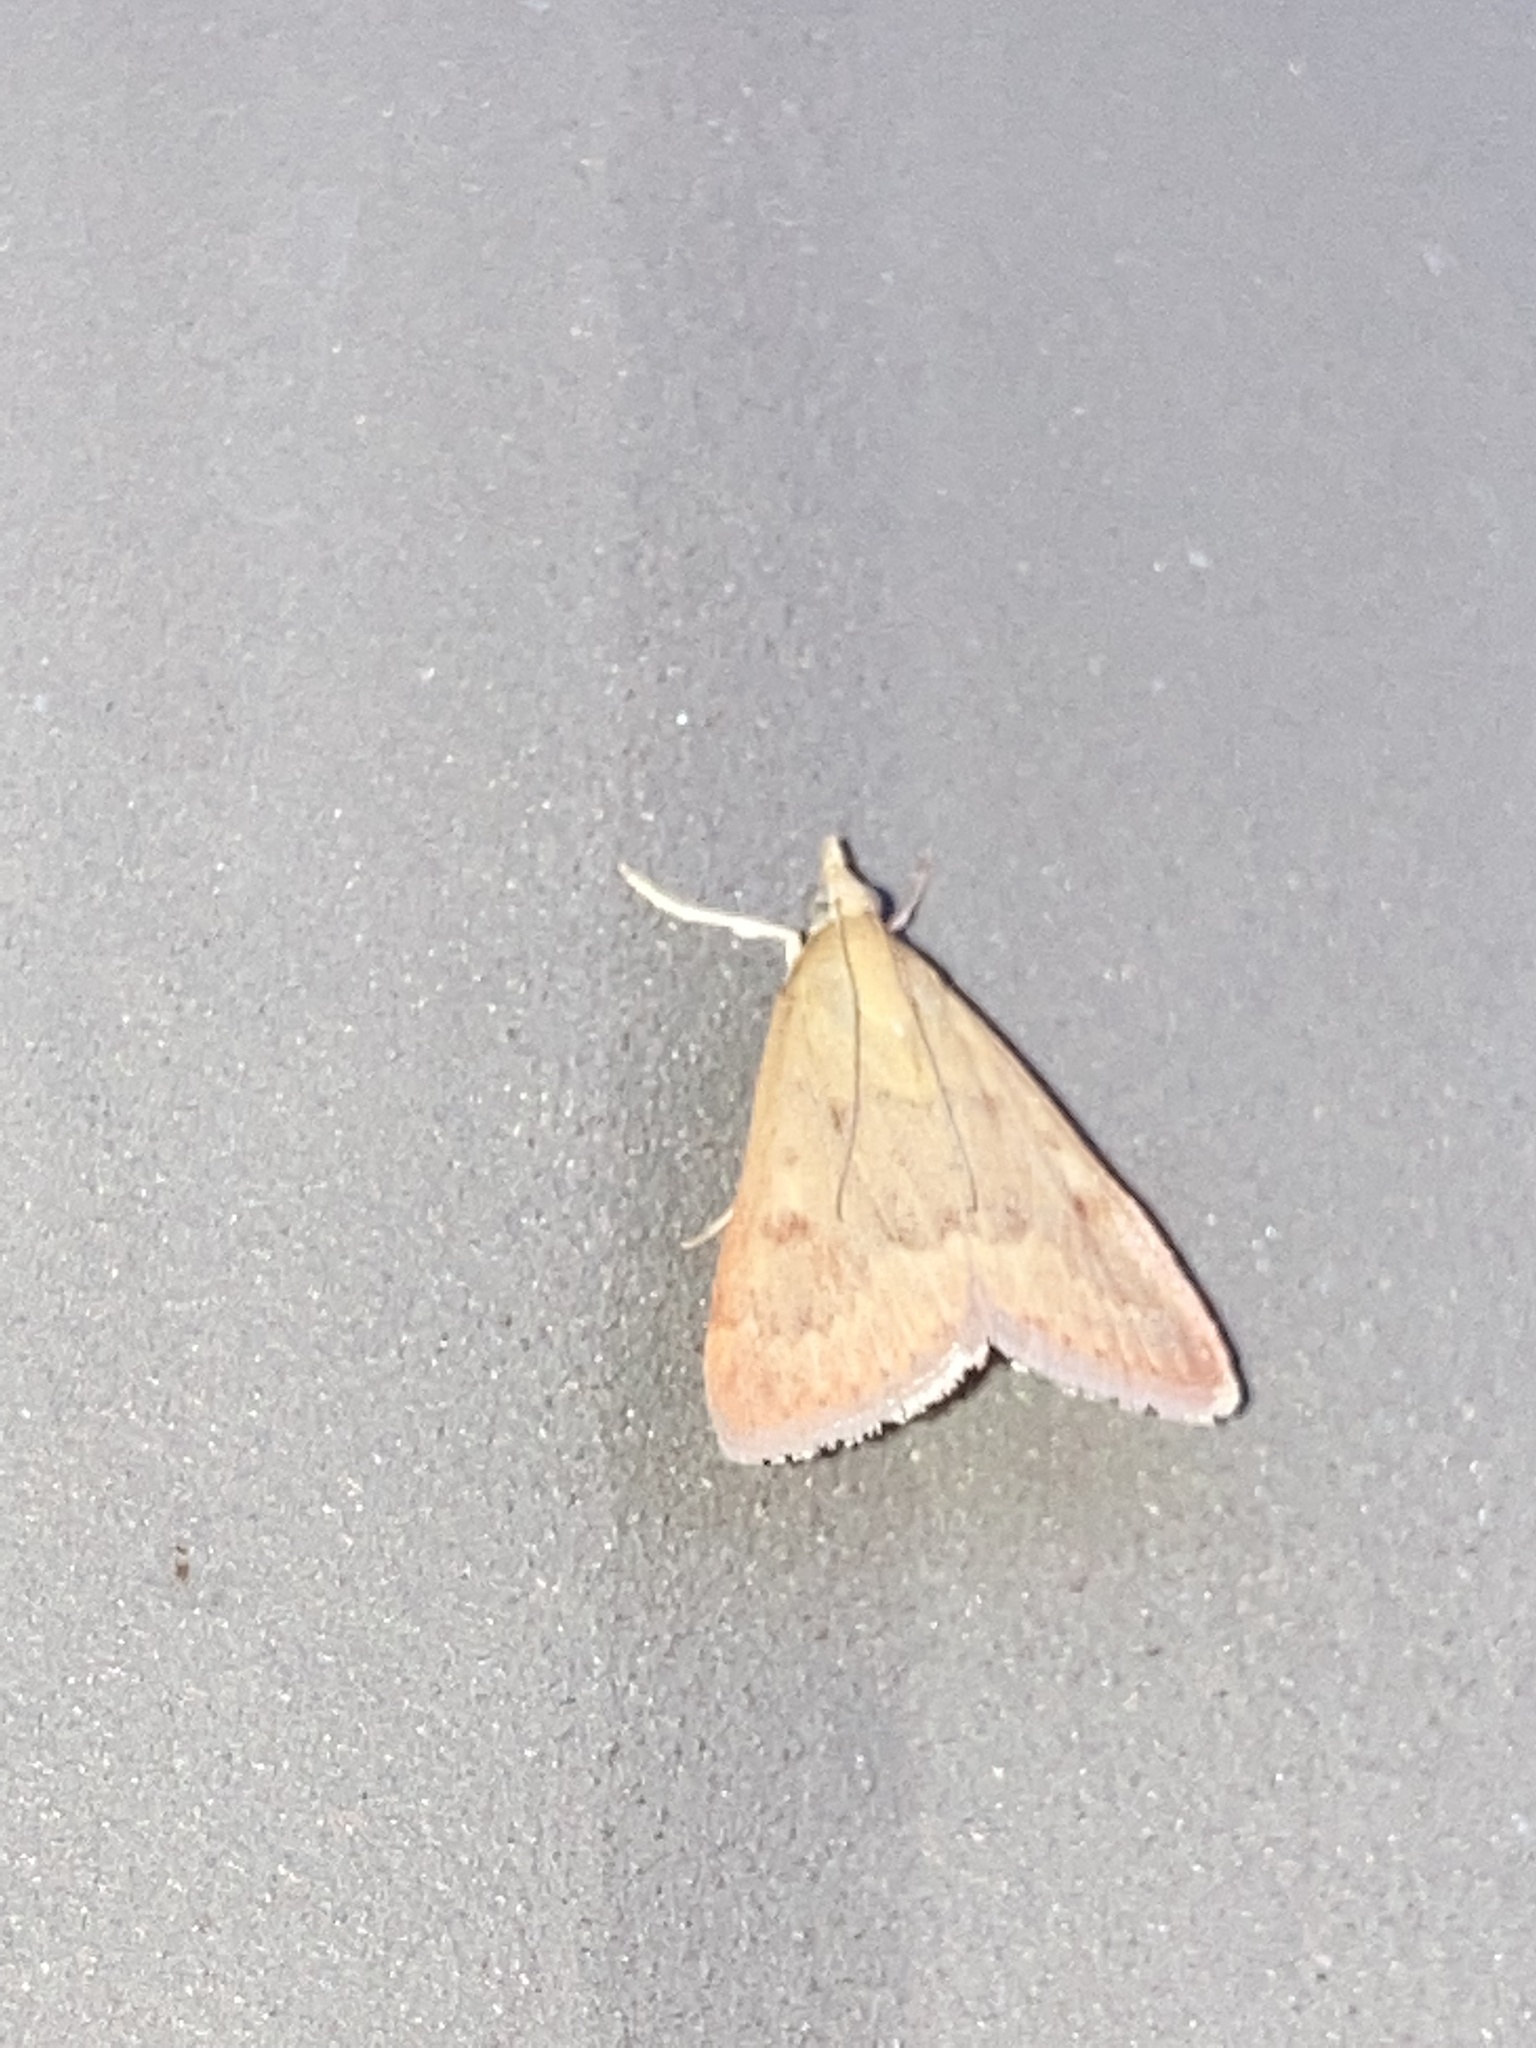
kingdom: Animalia
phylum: Arthropoda
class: Insecta
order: Lepidoptera
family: Crambidae
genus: Achyra
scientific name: Achyra rantalis
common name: Garden webworm
